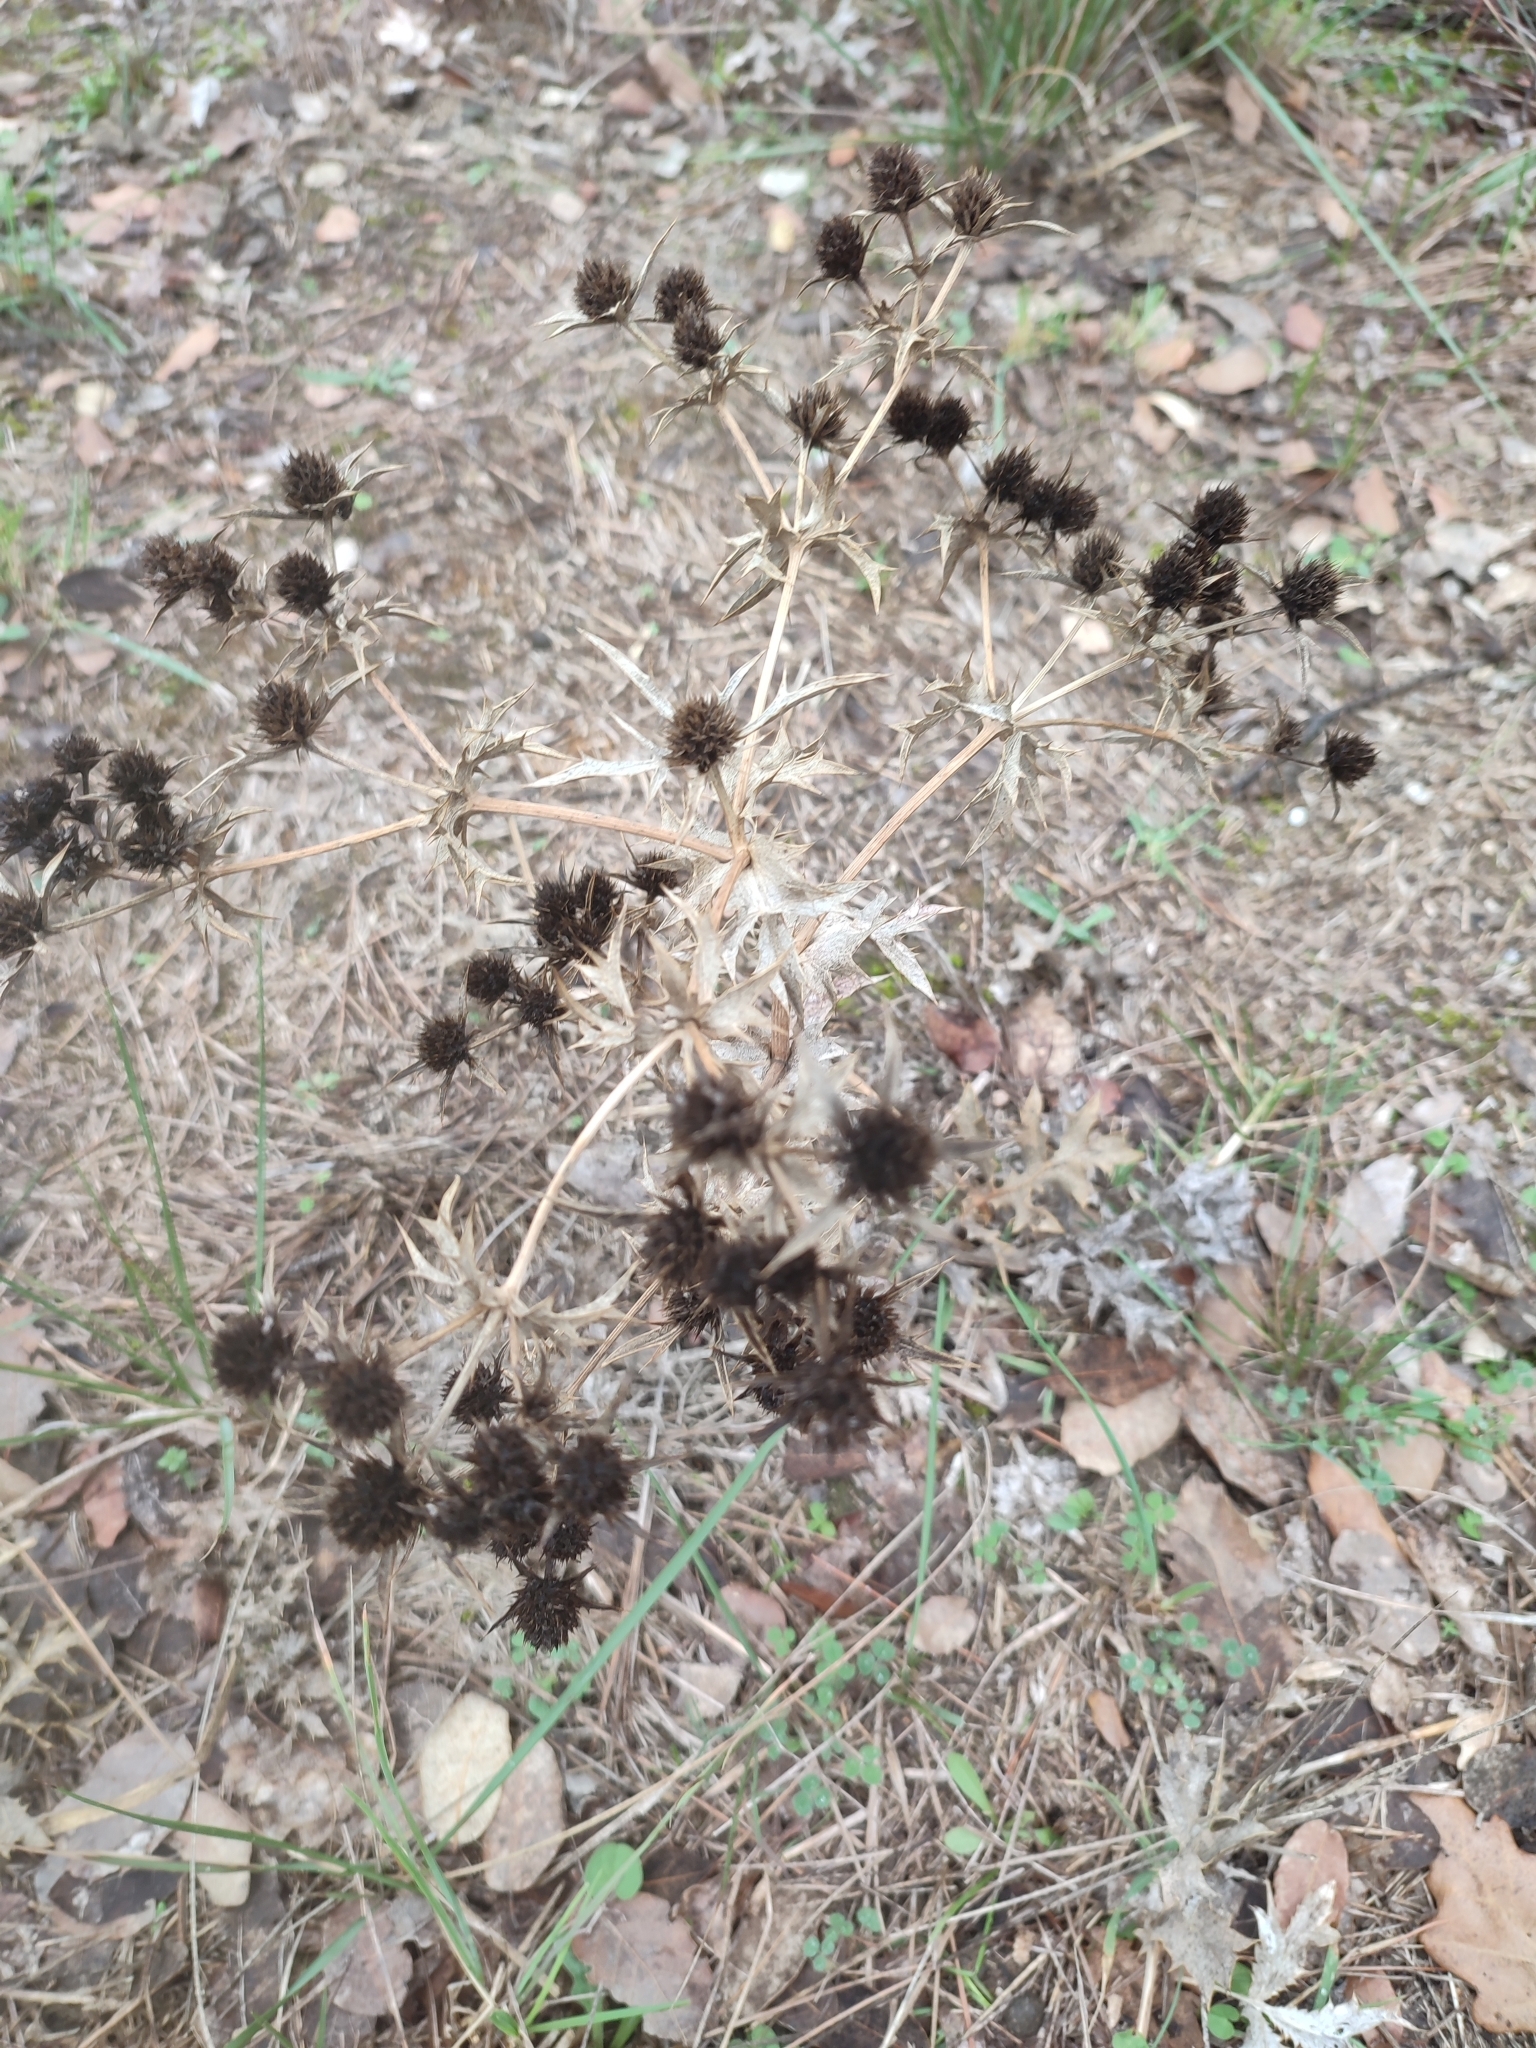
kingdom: Plantae
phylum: Tracheophyta
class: Magnoliopsida
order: Apiales
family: Apiaceae
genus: Eryngium
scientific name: Eryngium campestre
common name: Field eryngo
